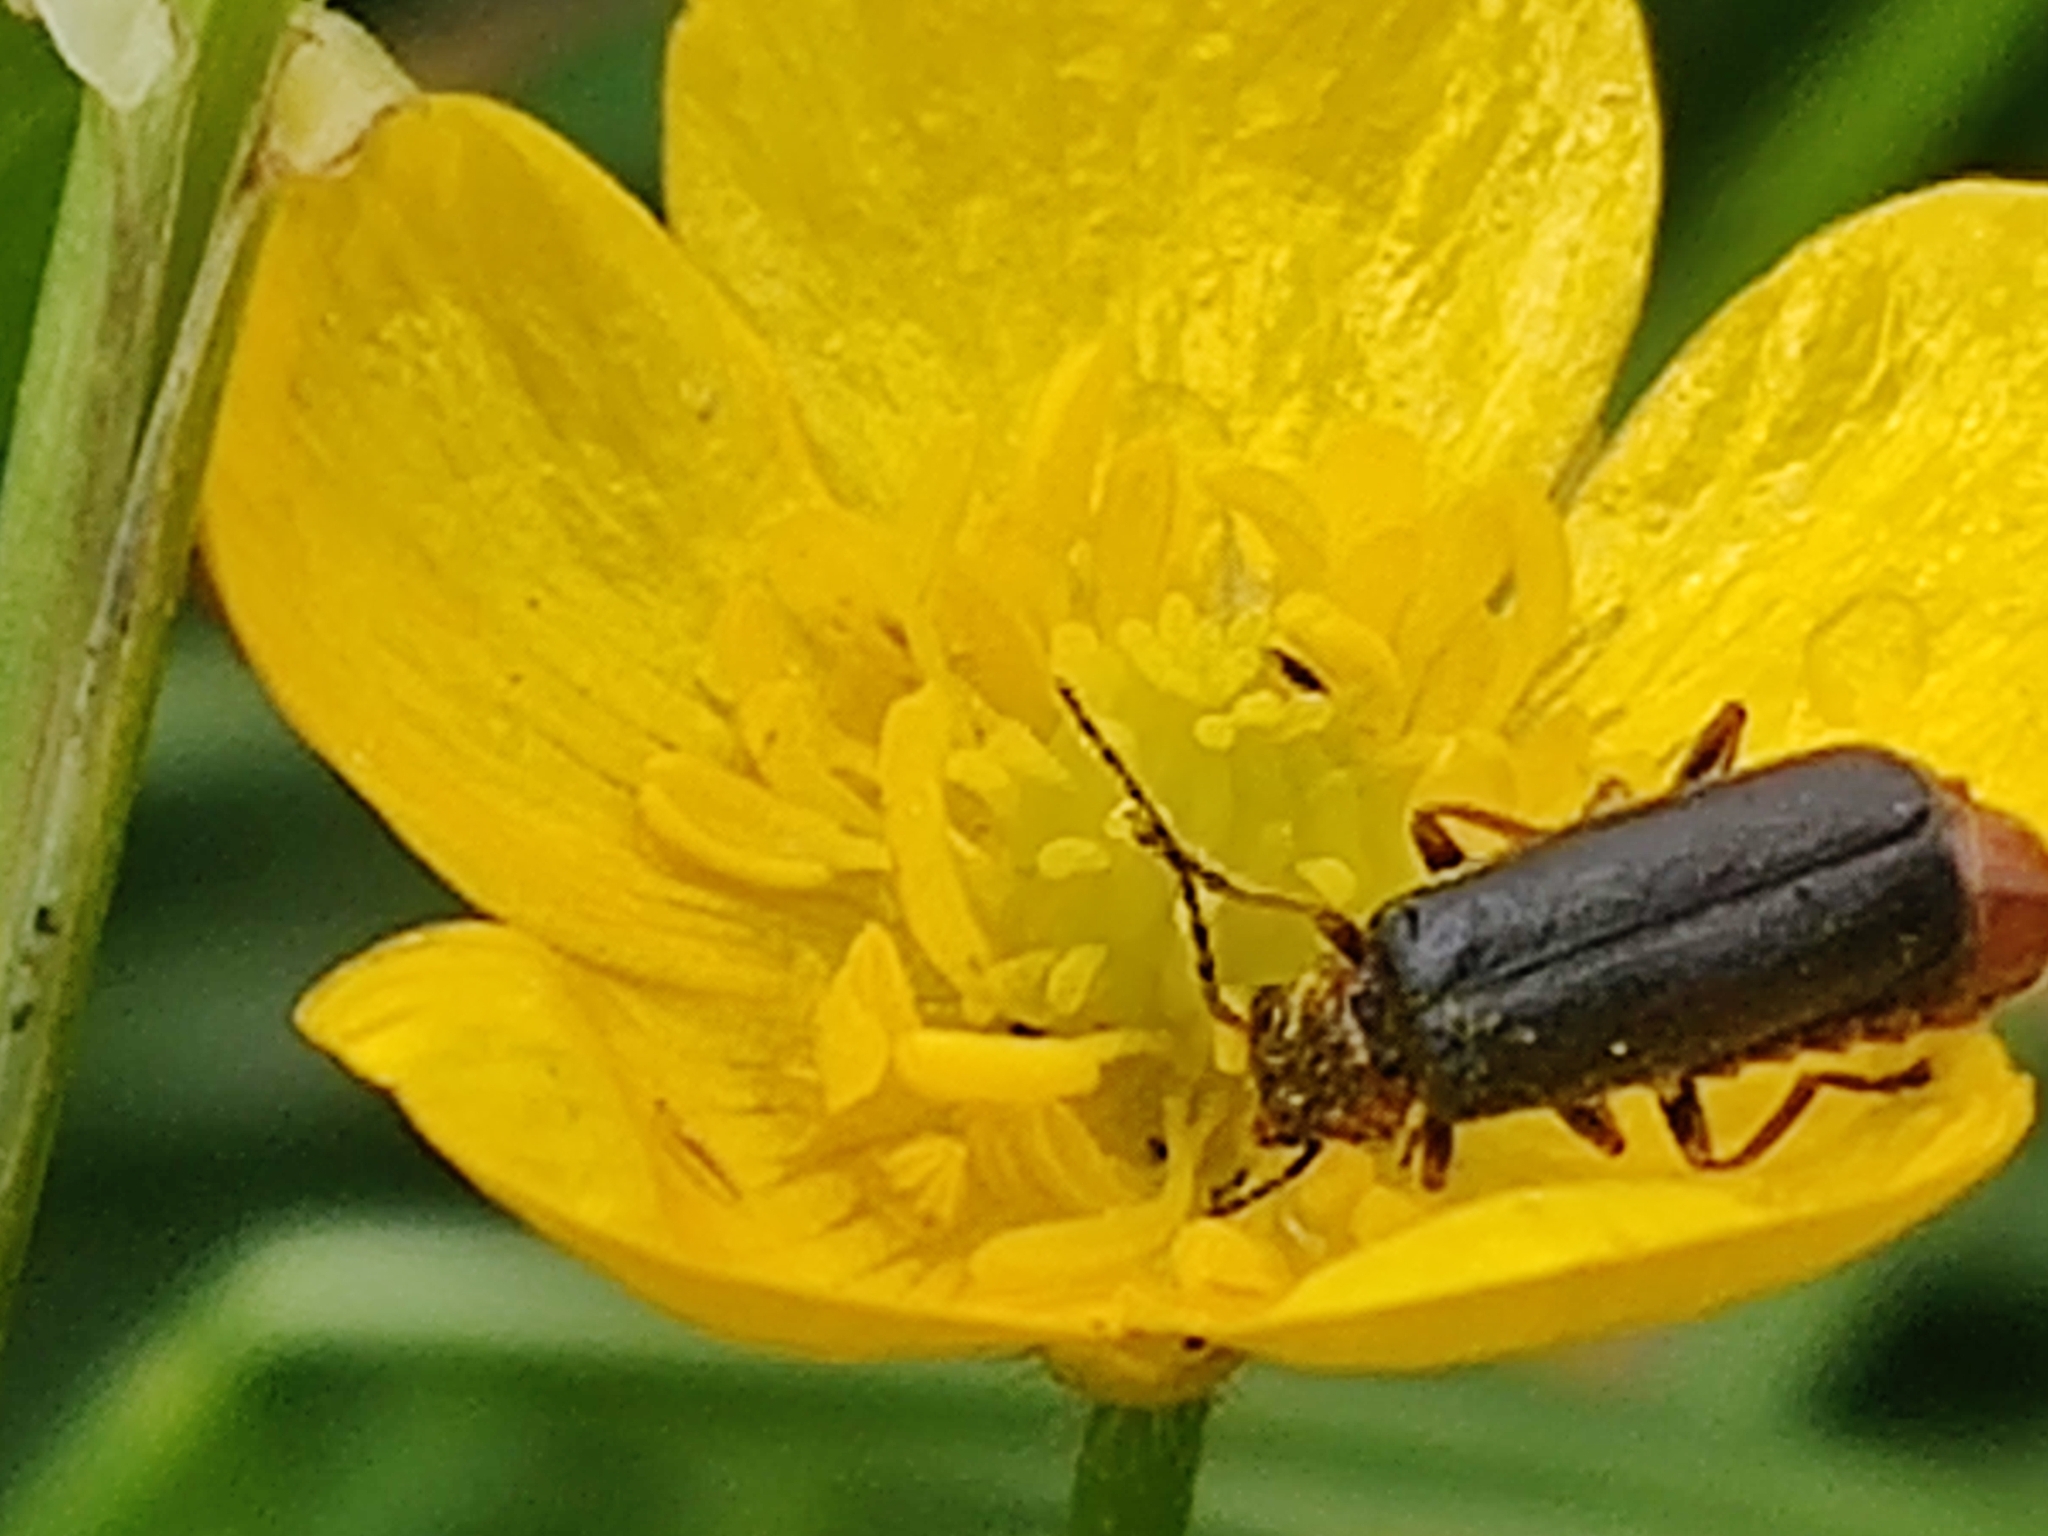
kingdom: Animalia
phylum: Arthropoda
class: Insecta
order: Coleoptera
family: Cantharidae
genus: Cantharis
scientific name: Cantharis flavilabris
